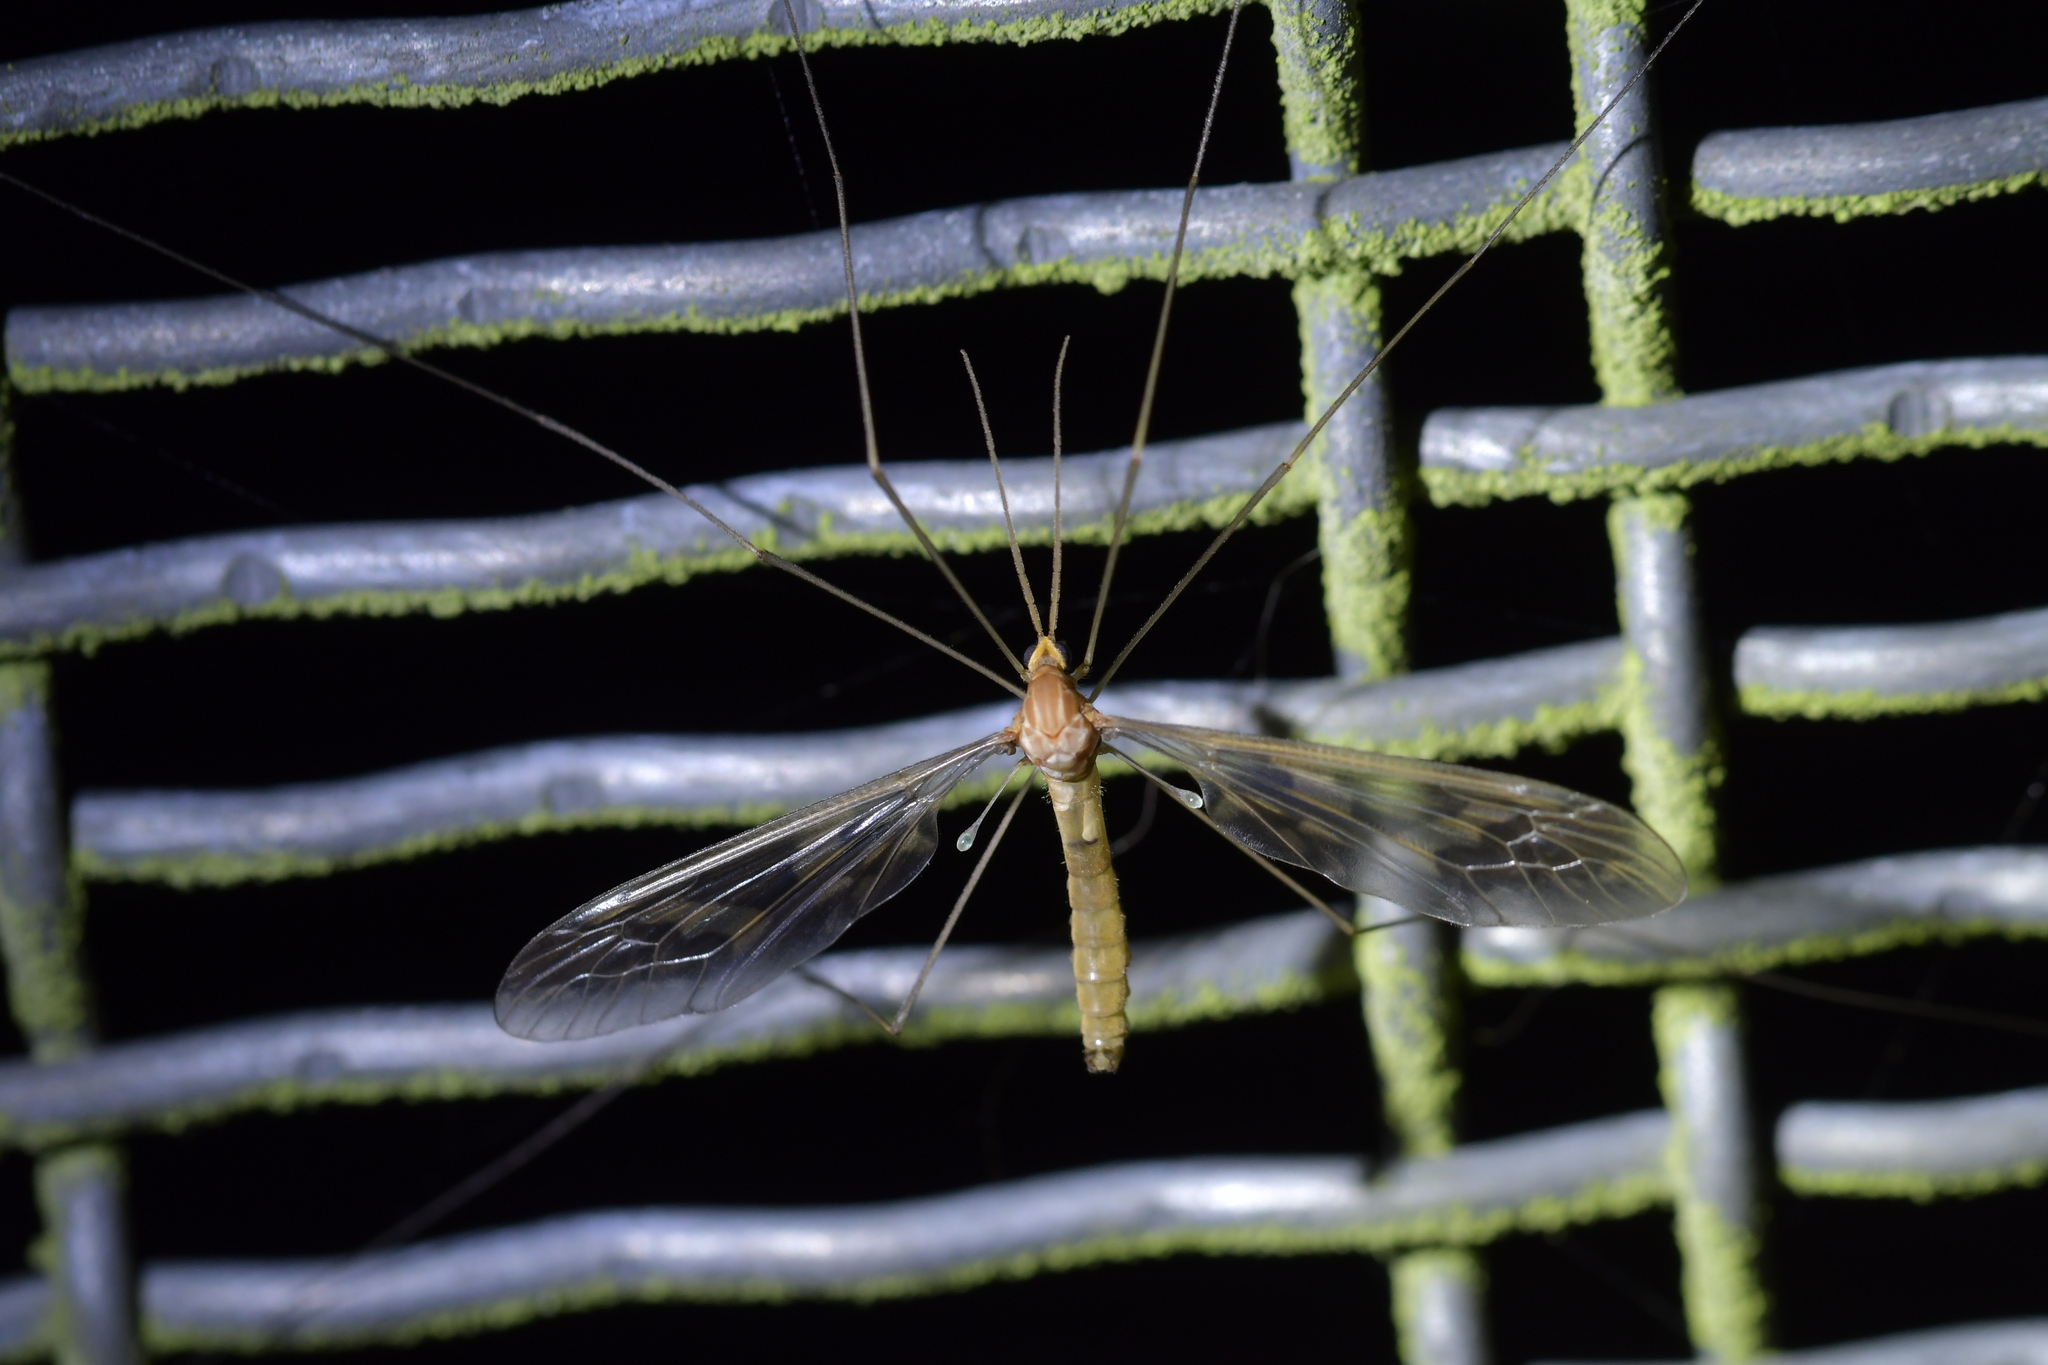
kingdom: Animalia
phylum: Arthropoda
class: Insecta
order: Diptera
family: Tipulidae
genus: Leptotarsus
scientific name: Leptotarsus binotatus
